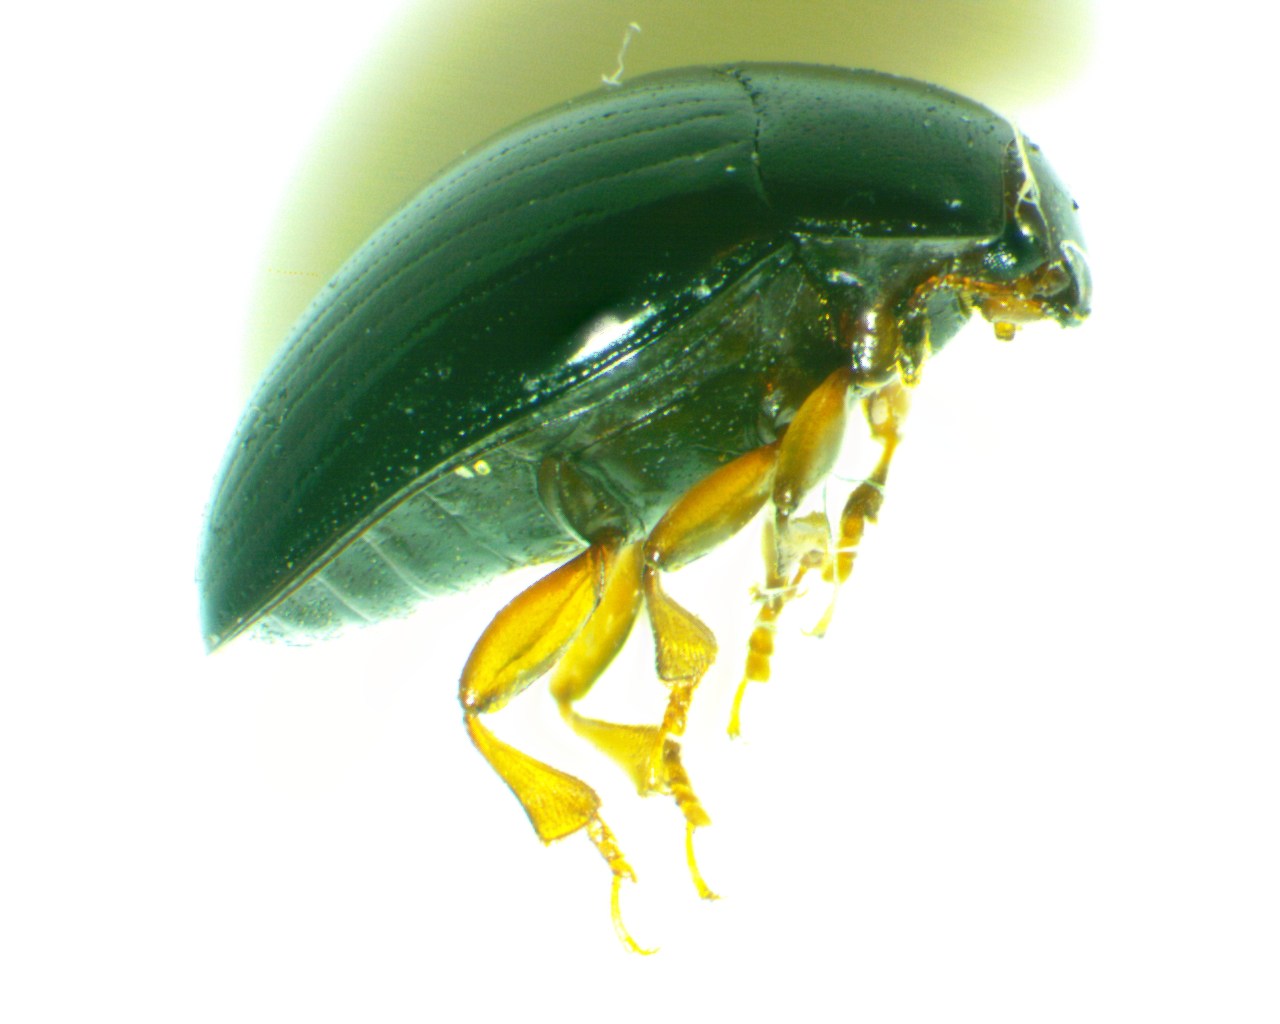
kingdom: Animalia
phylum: Arthropoda
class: Insecta
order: Coleoptera
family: Erotylidae
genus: Tritoma
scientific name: Tritoma erythrocephala
